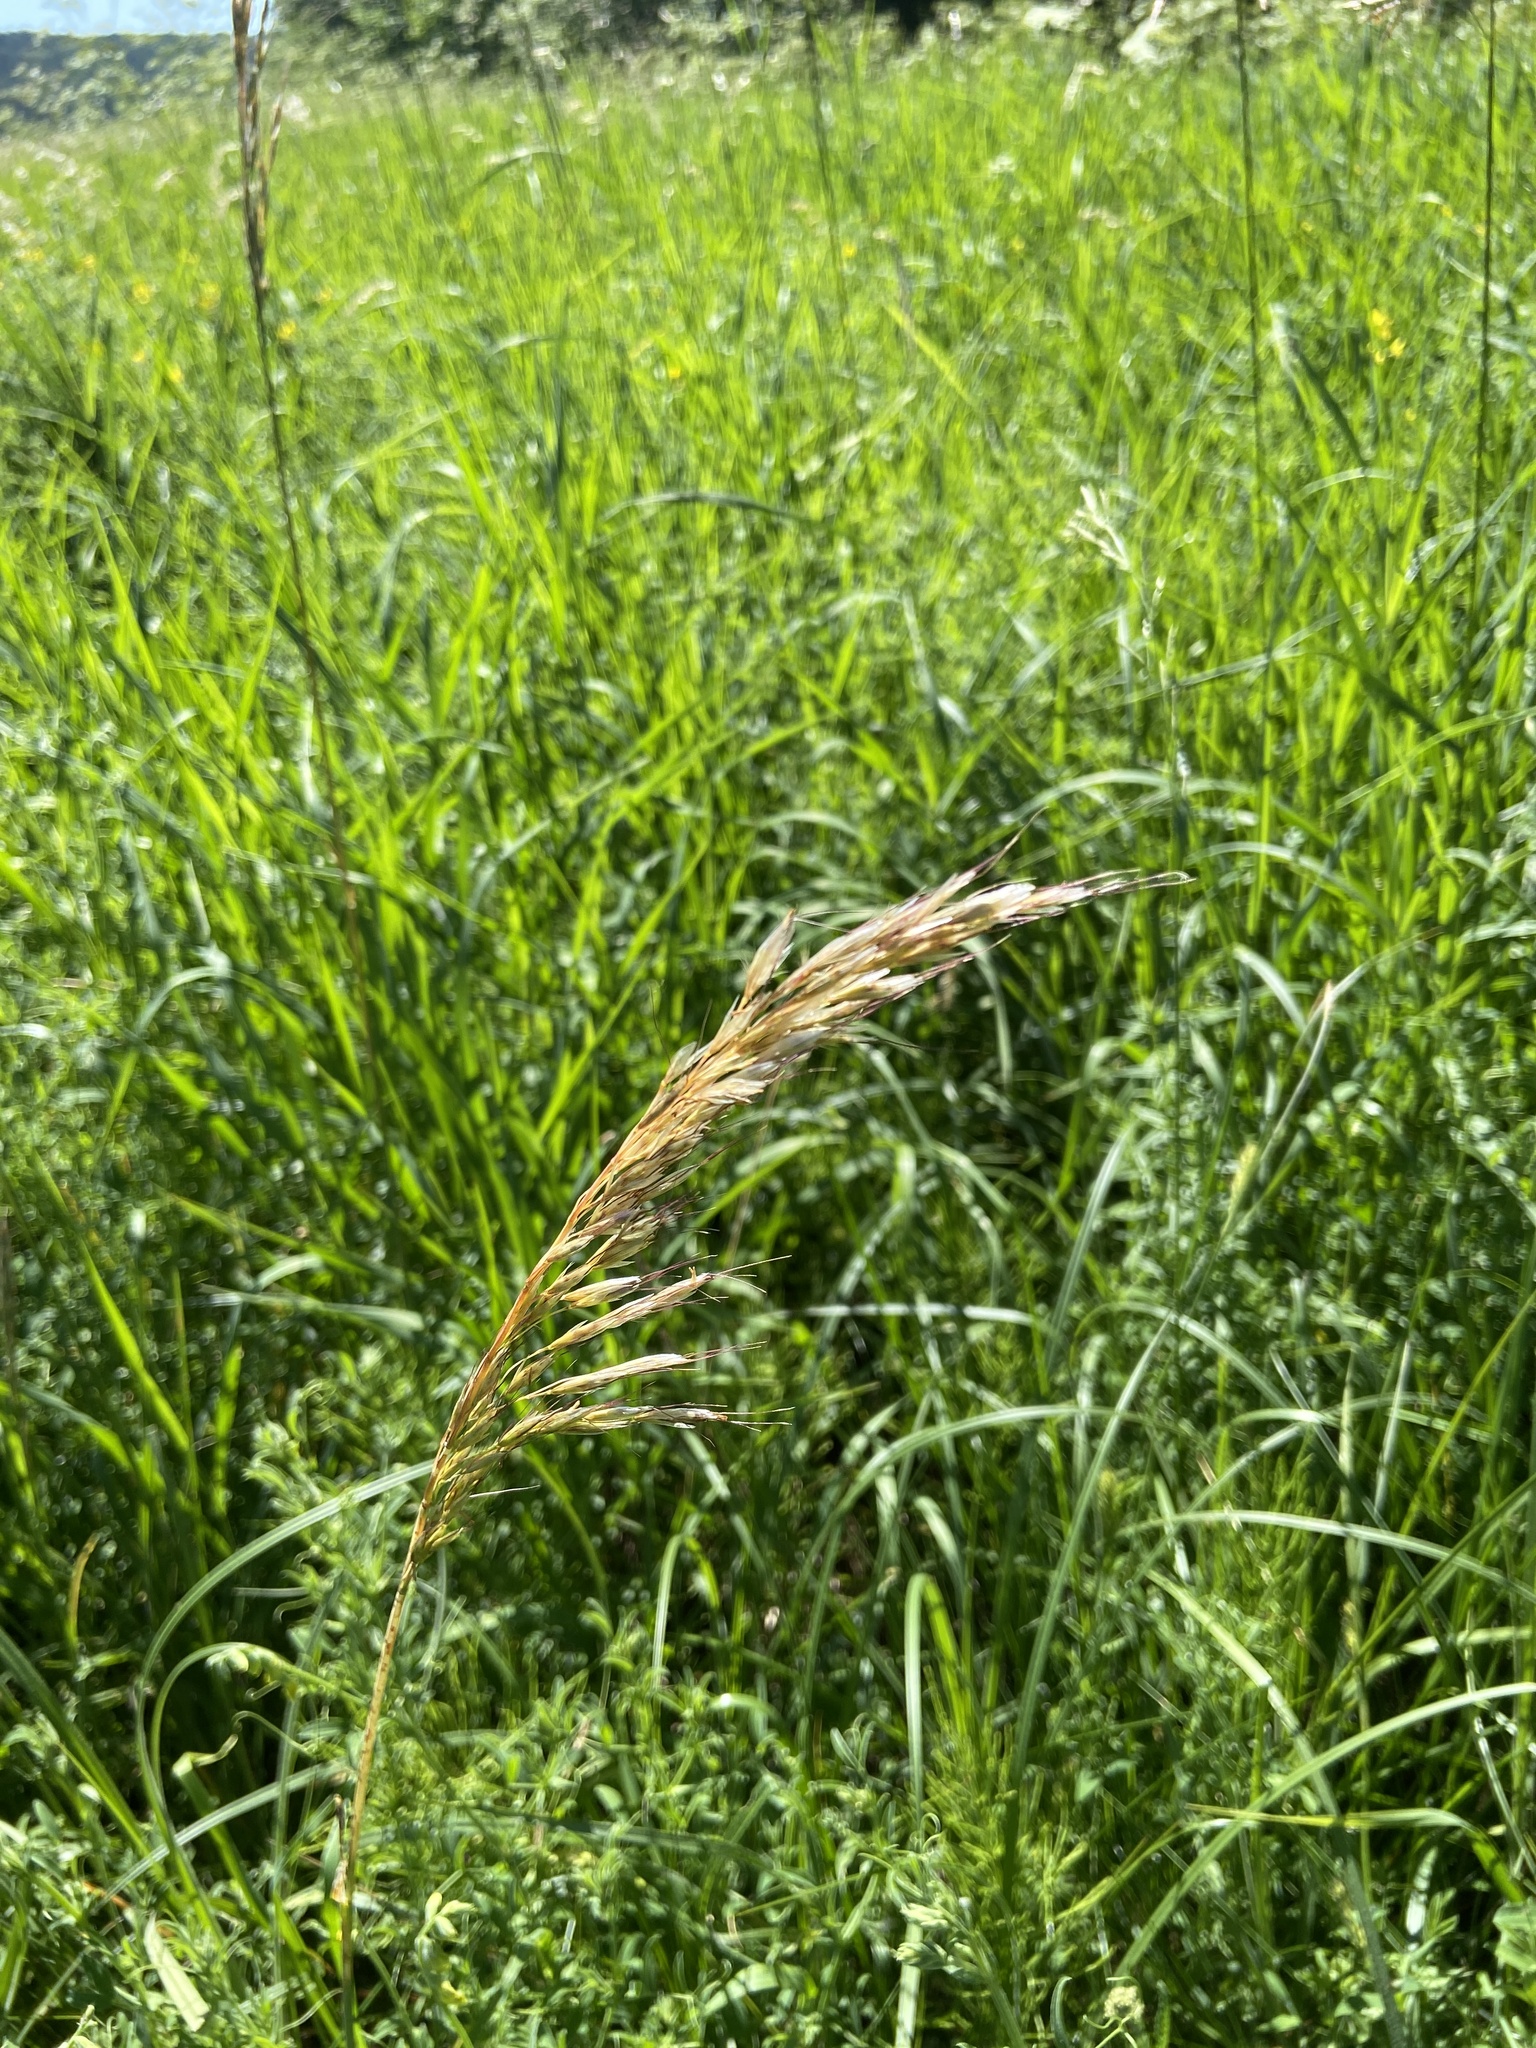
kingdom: Plantae
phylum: Tracheophyta
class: Liliopsida
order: Poales
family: Poaceae
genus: Avenula
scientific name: Avenula pubescens
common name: Downy alpine oatgrass
